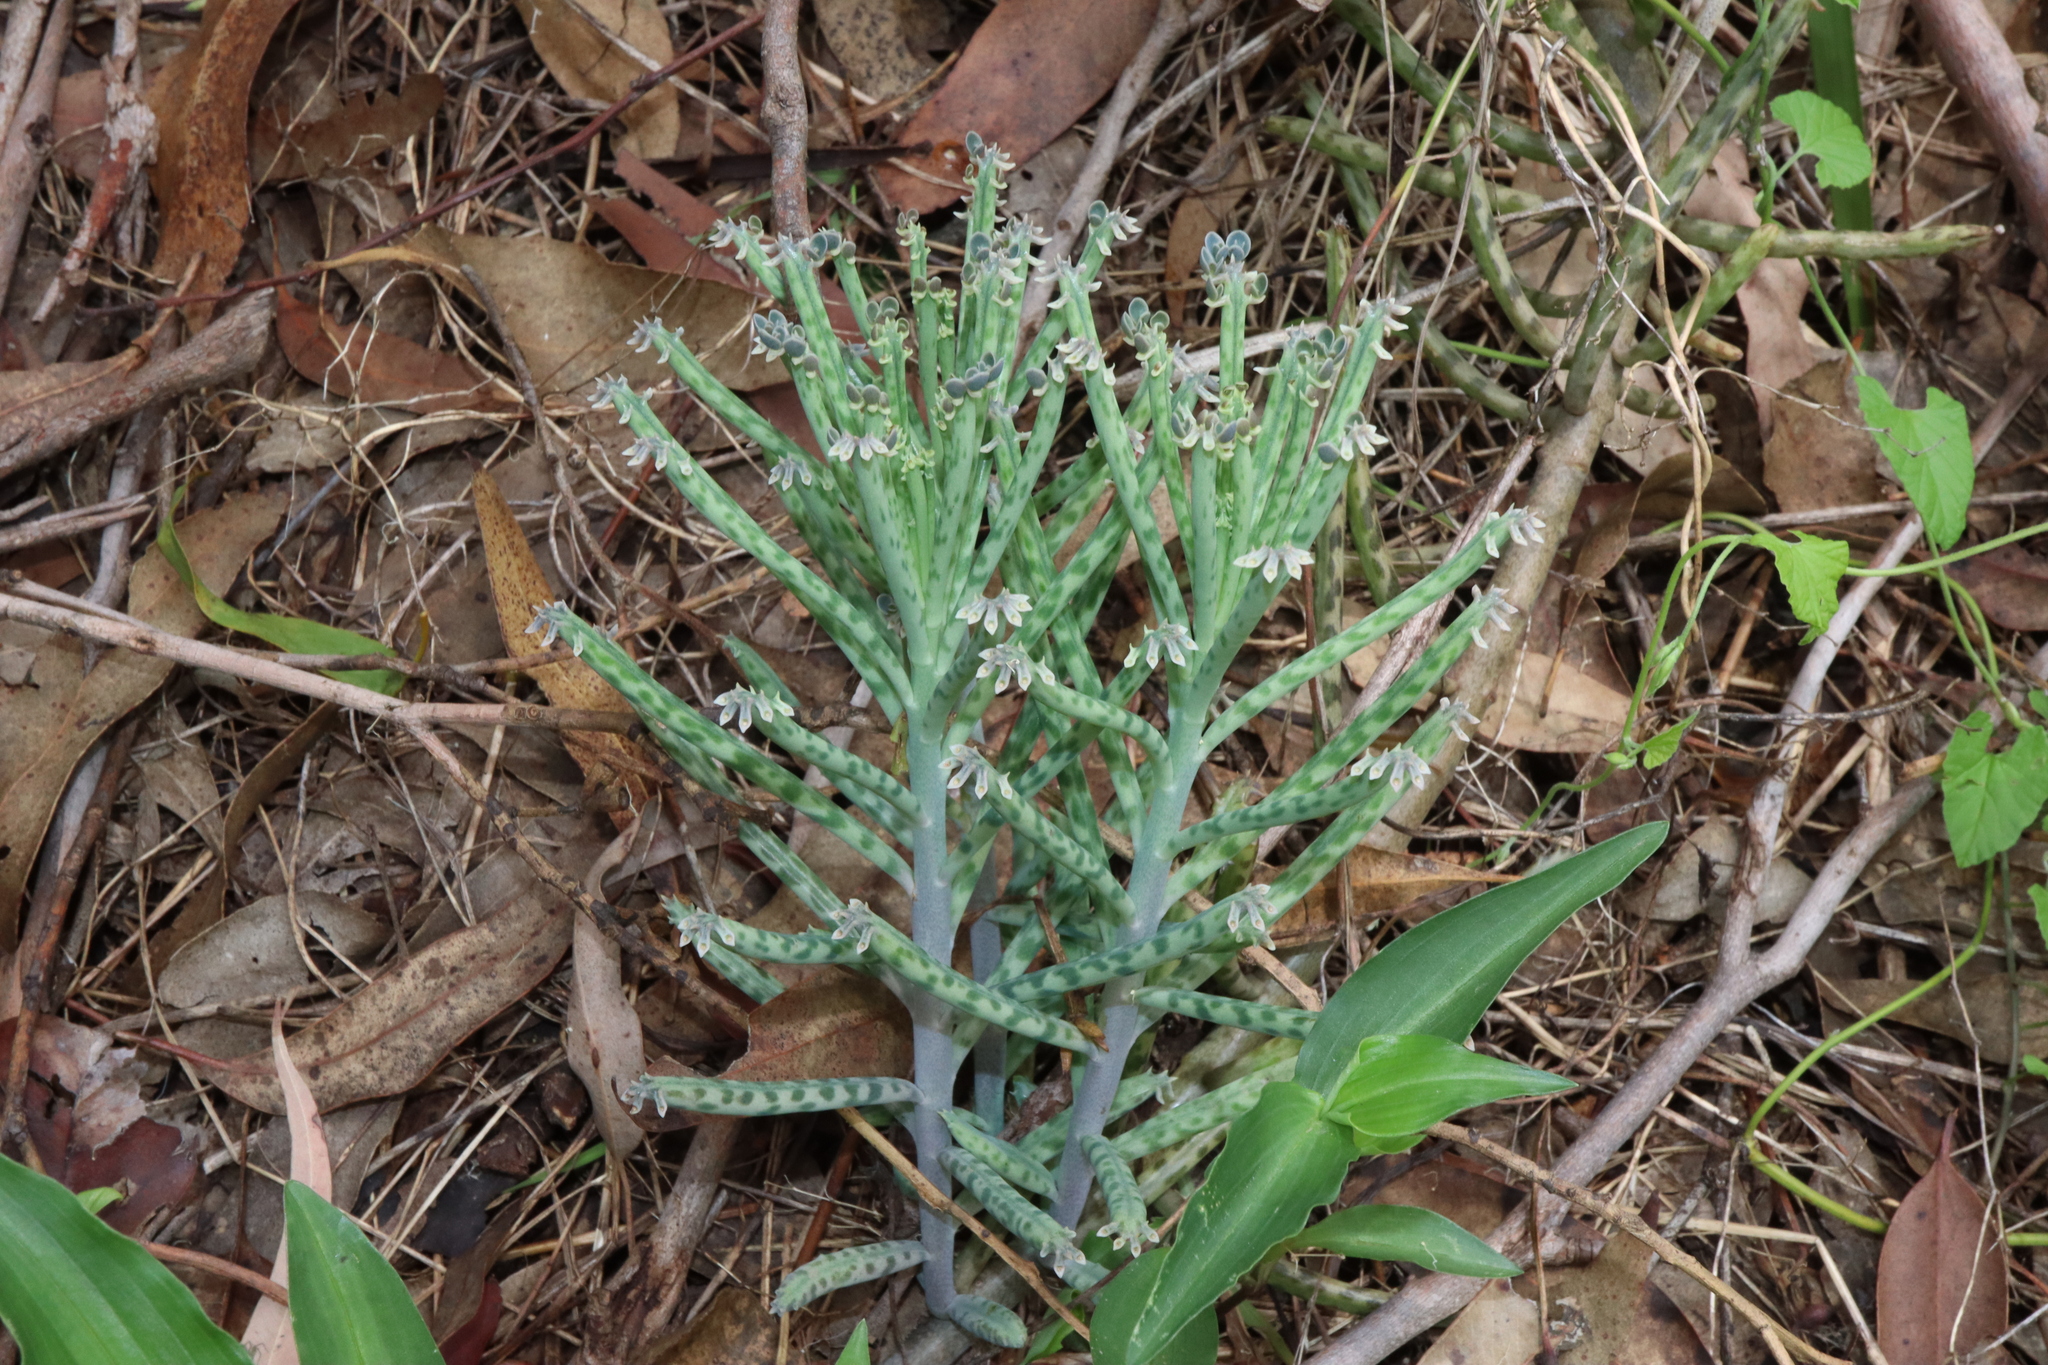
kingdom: Plantae
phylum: Tracheophyta
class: Magnoliopsida
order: Saxifragales
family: Crassulaceae
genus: Kalanchoe
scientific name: Kalanchoe delagoensis
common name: Chandelier plant
